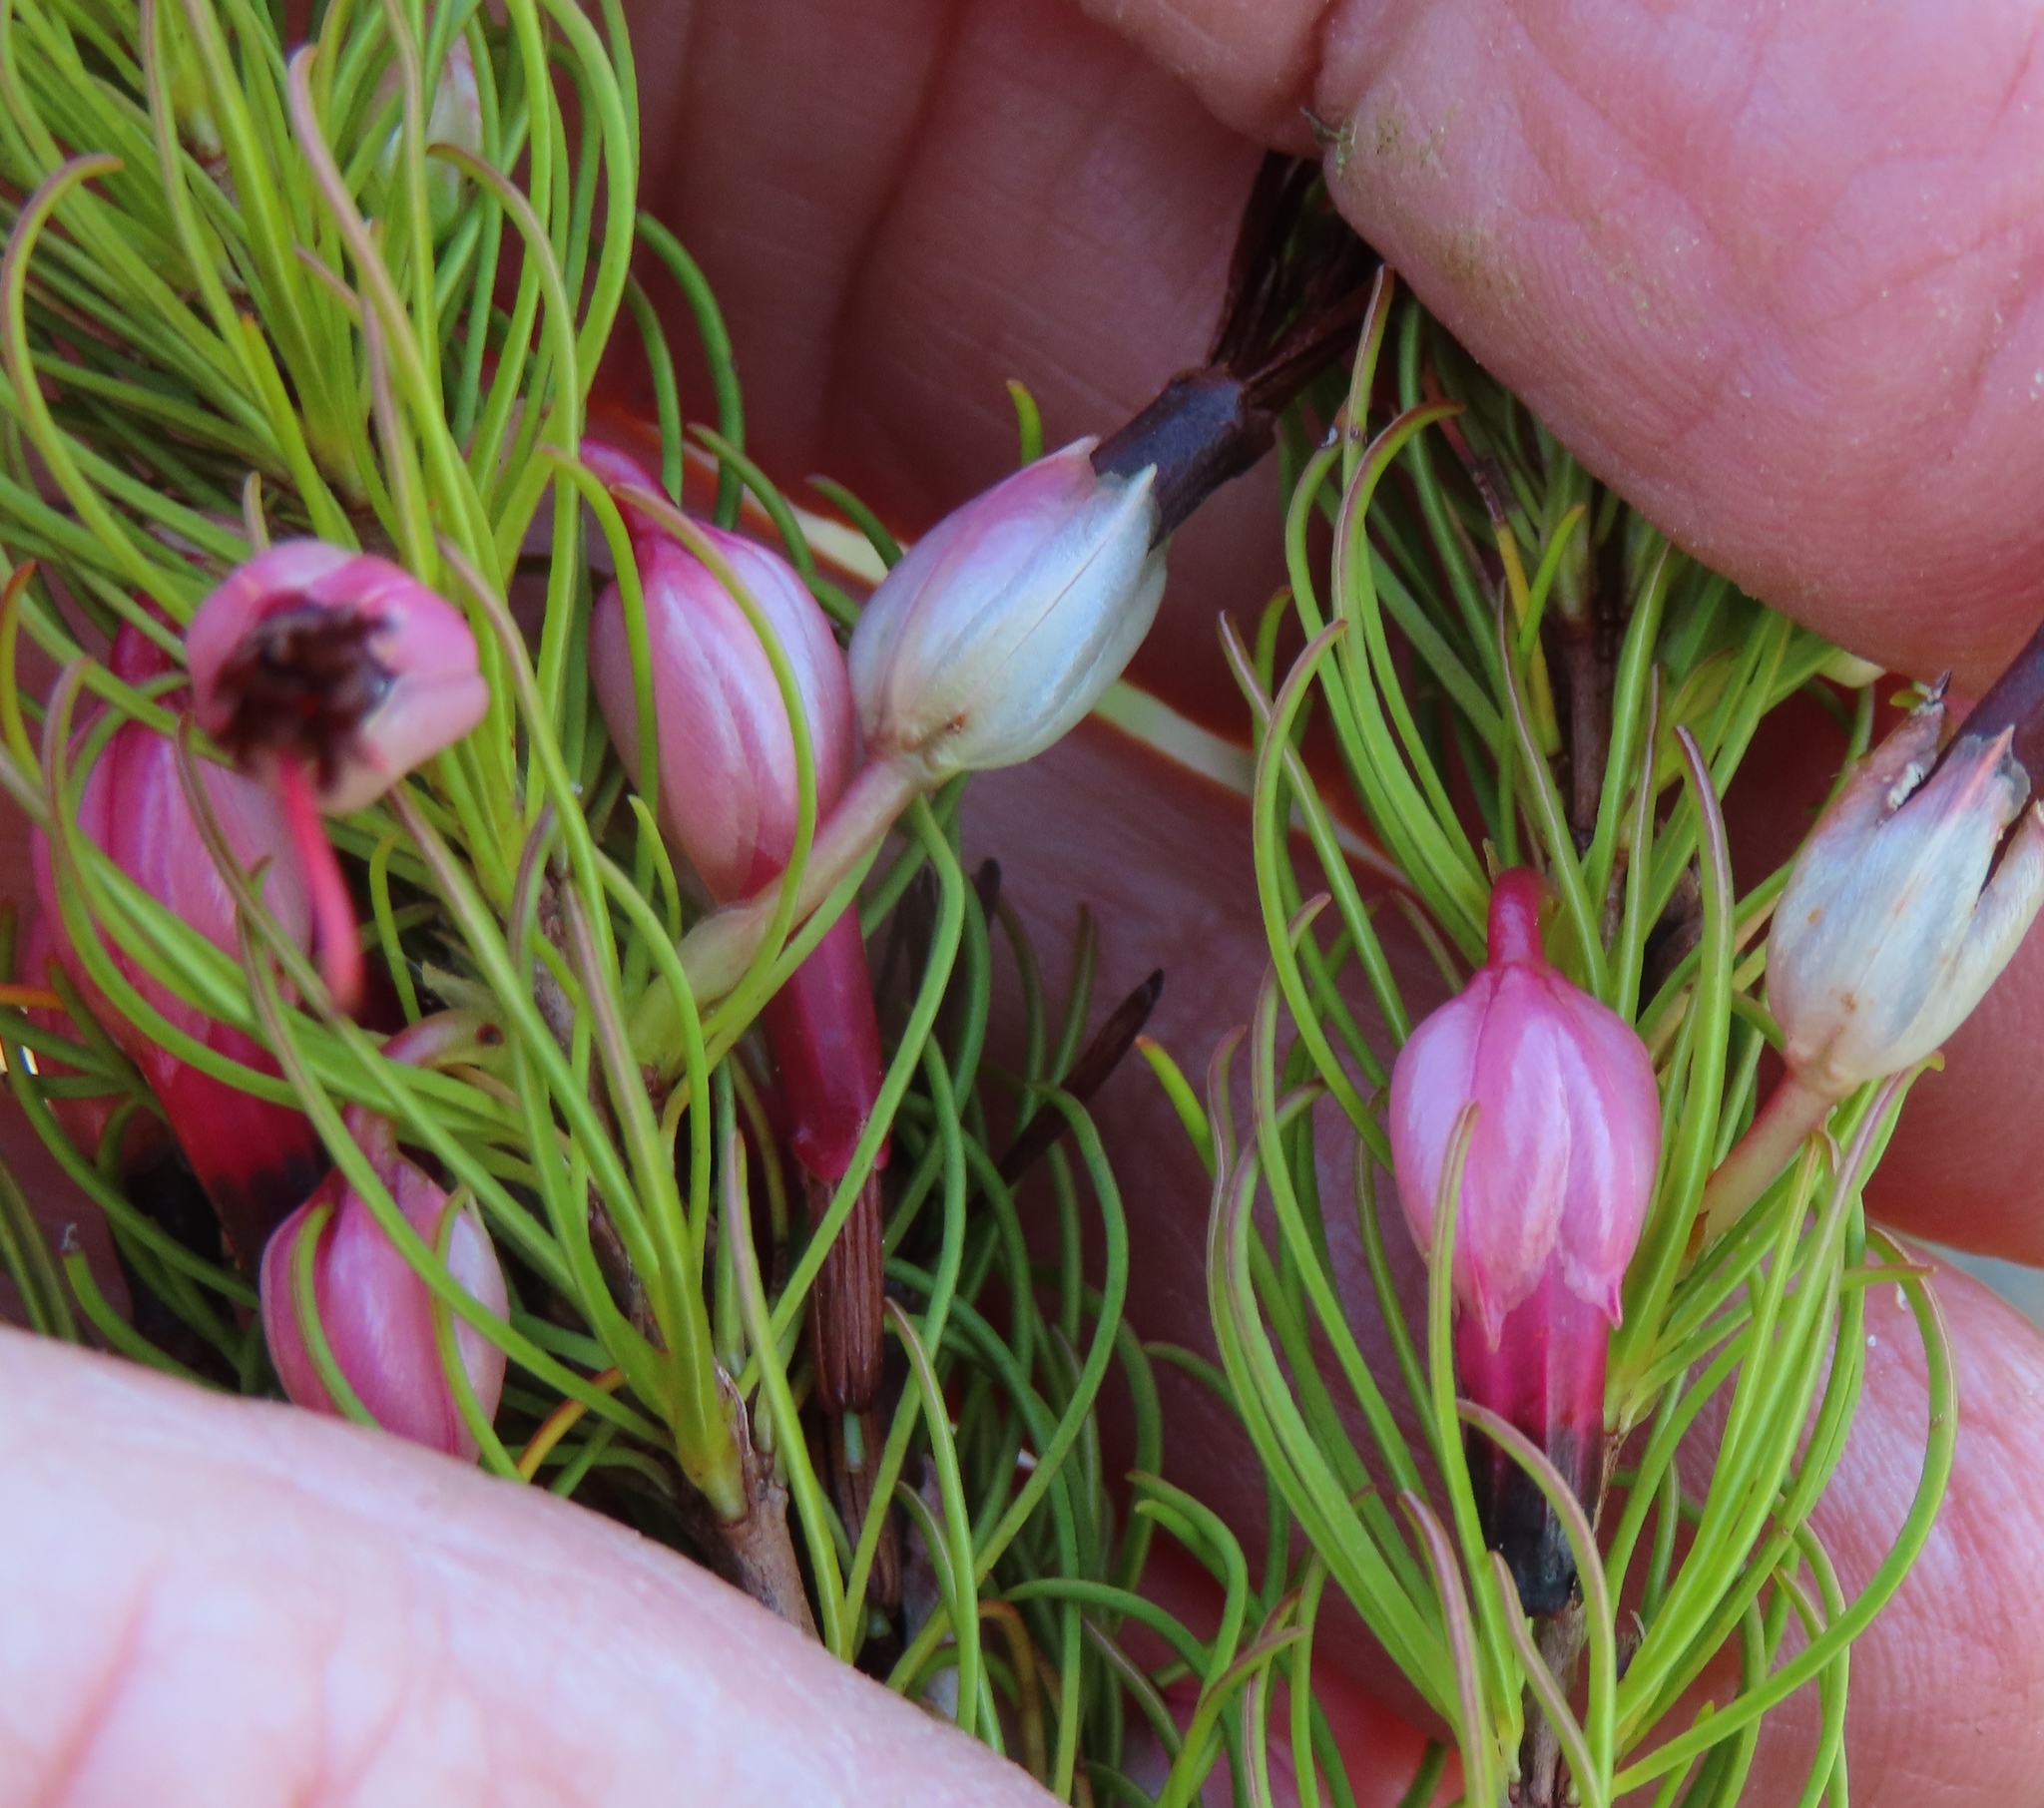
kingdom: Plantae
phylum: Tracheophyta
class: Magnoliopsida
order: Ericales
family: Ericaceae
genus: Erica
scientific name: Erica plukenetii
